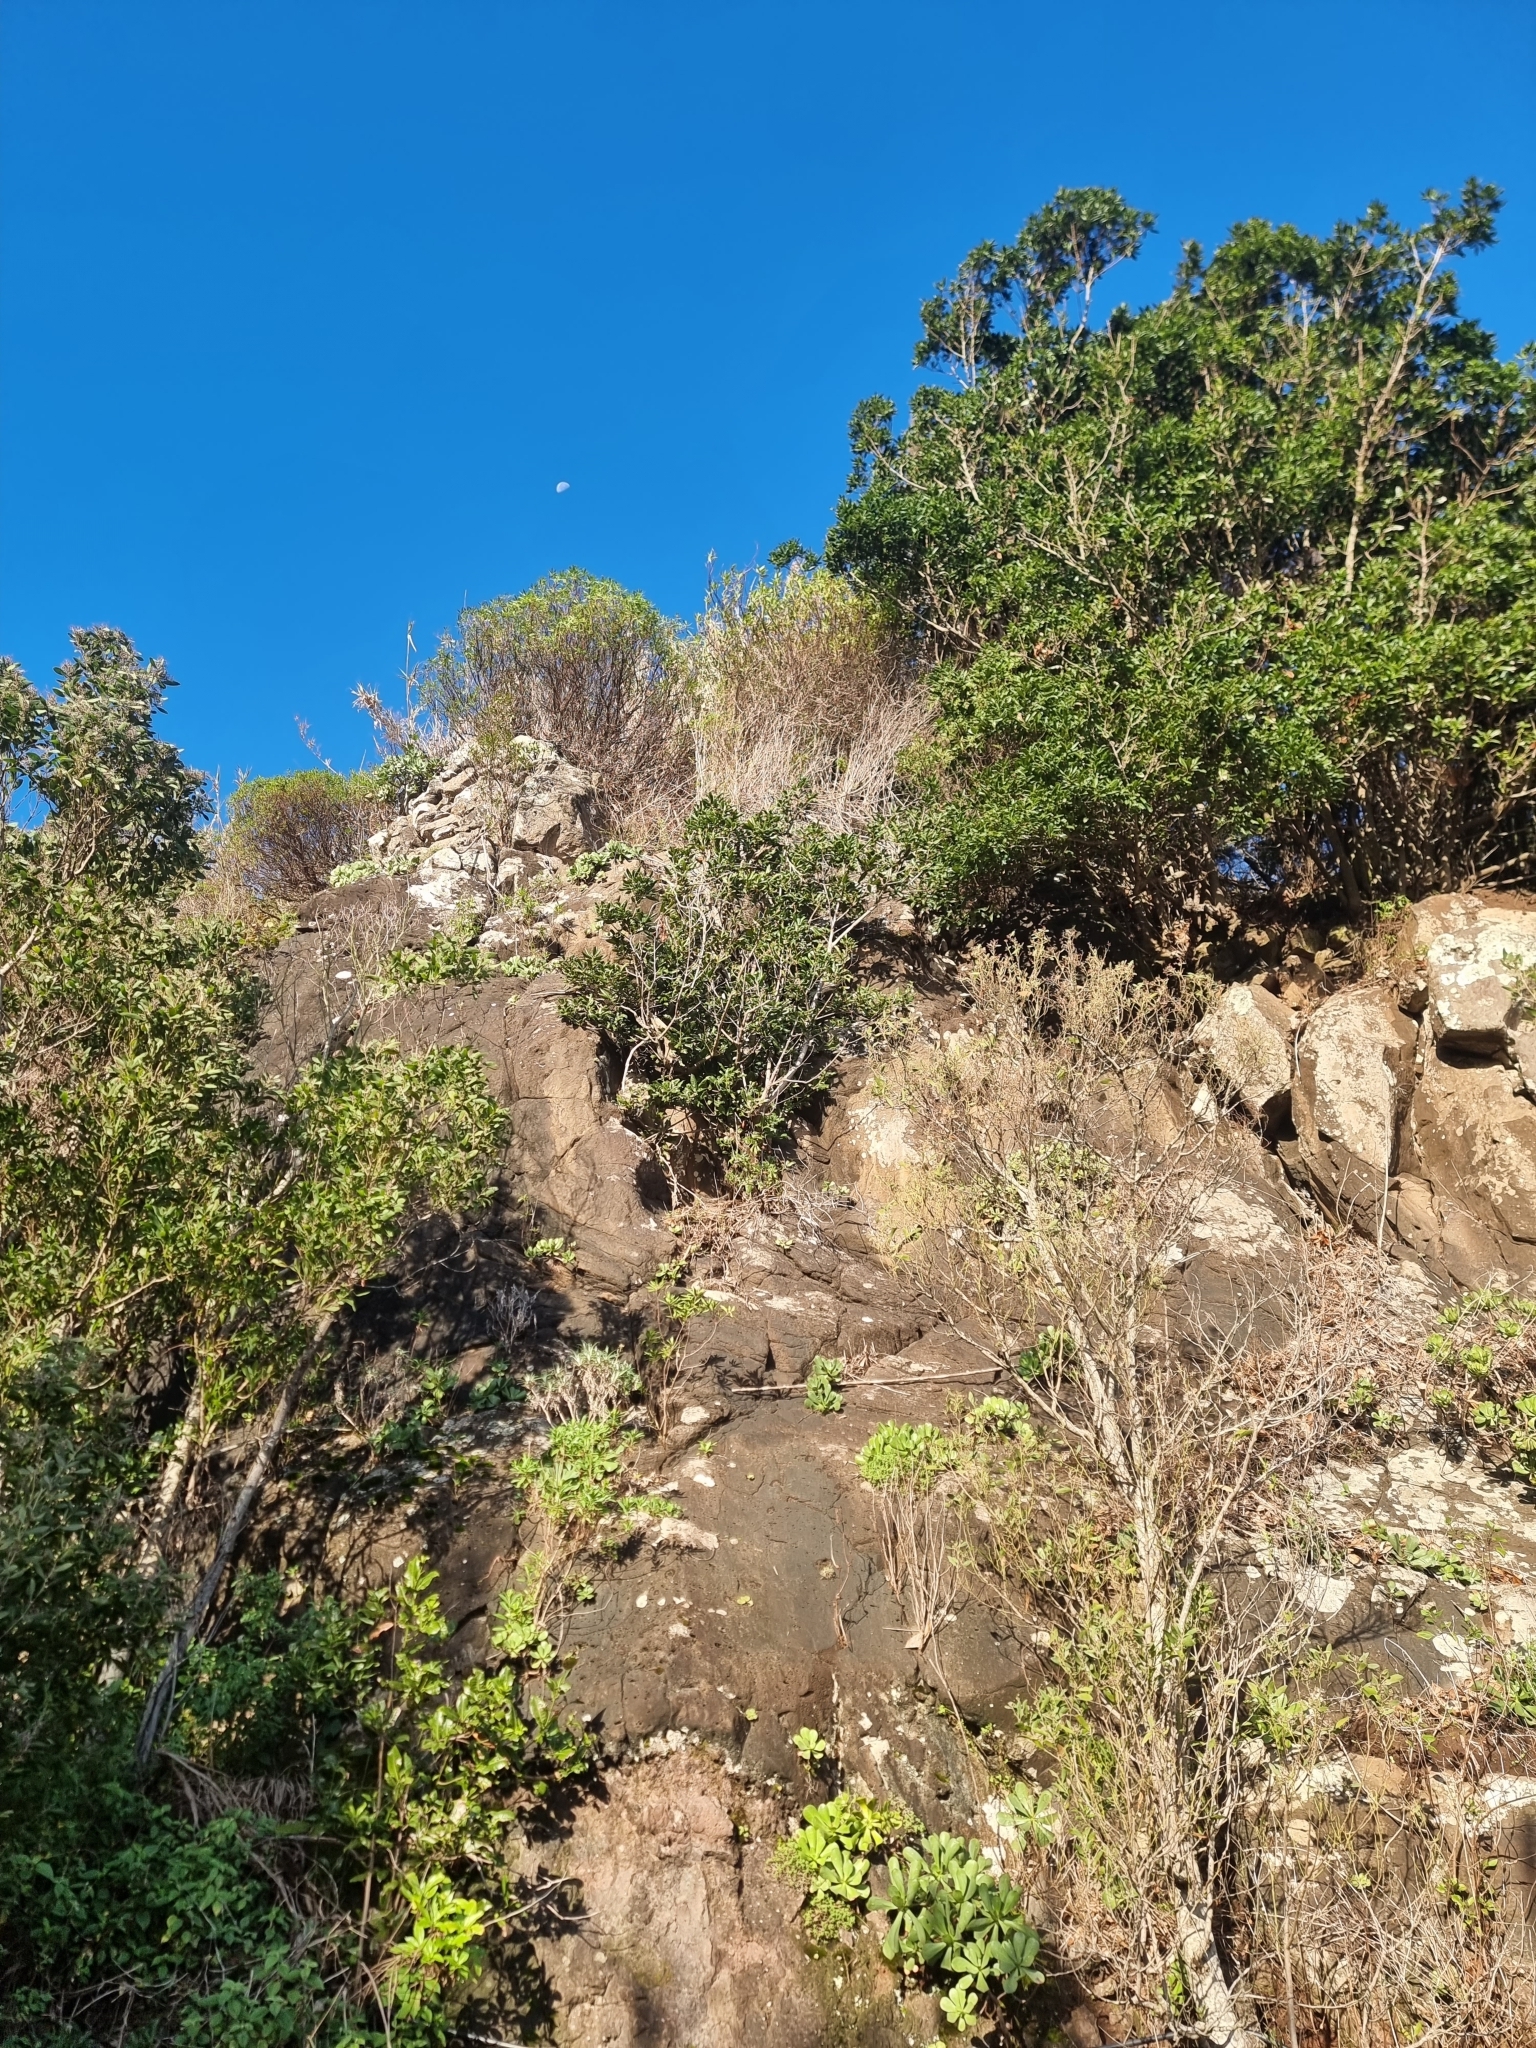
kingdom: Plantae
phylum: Tracheophyta
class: Magnoliopsida
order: Laurales
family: Lauraceae
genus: Apollonias
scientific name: Apollonias barbujana
